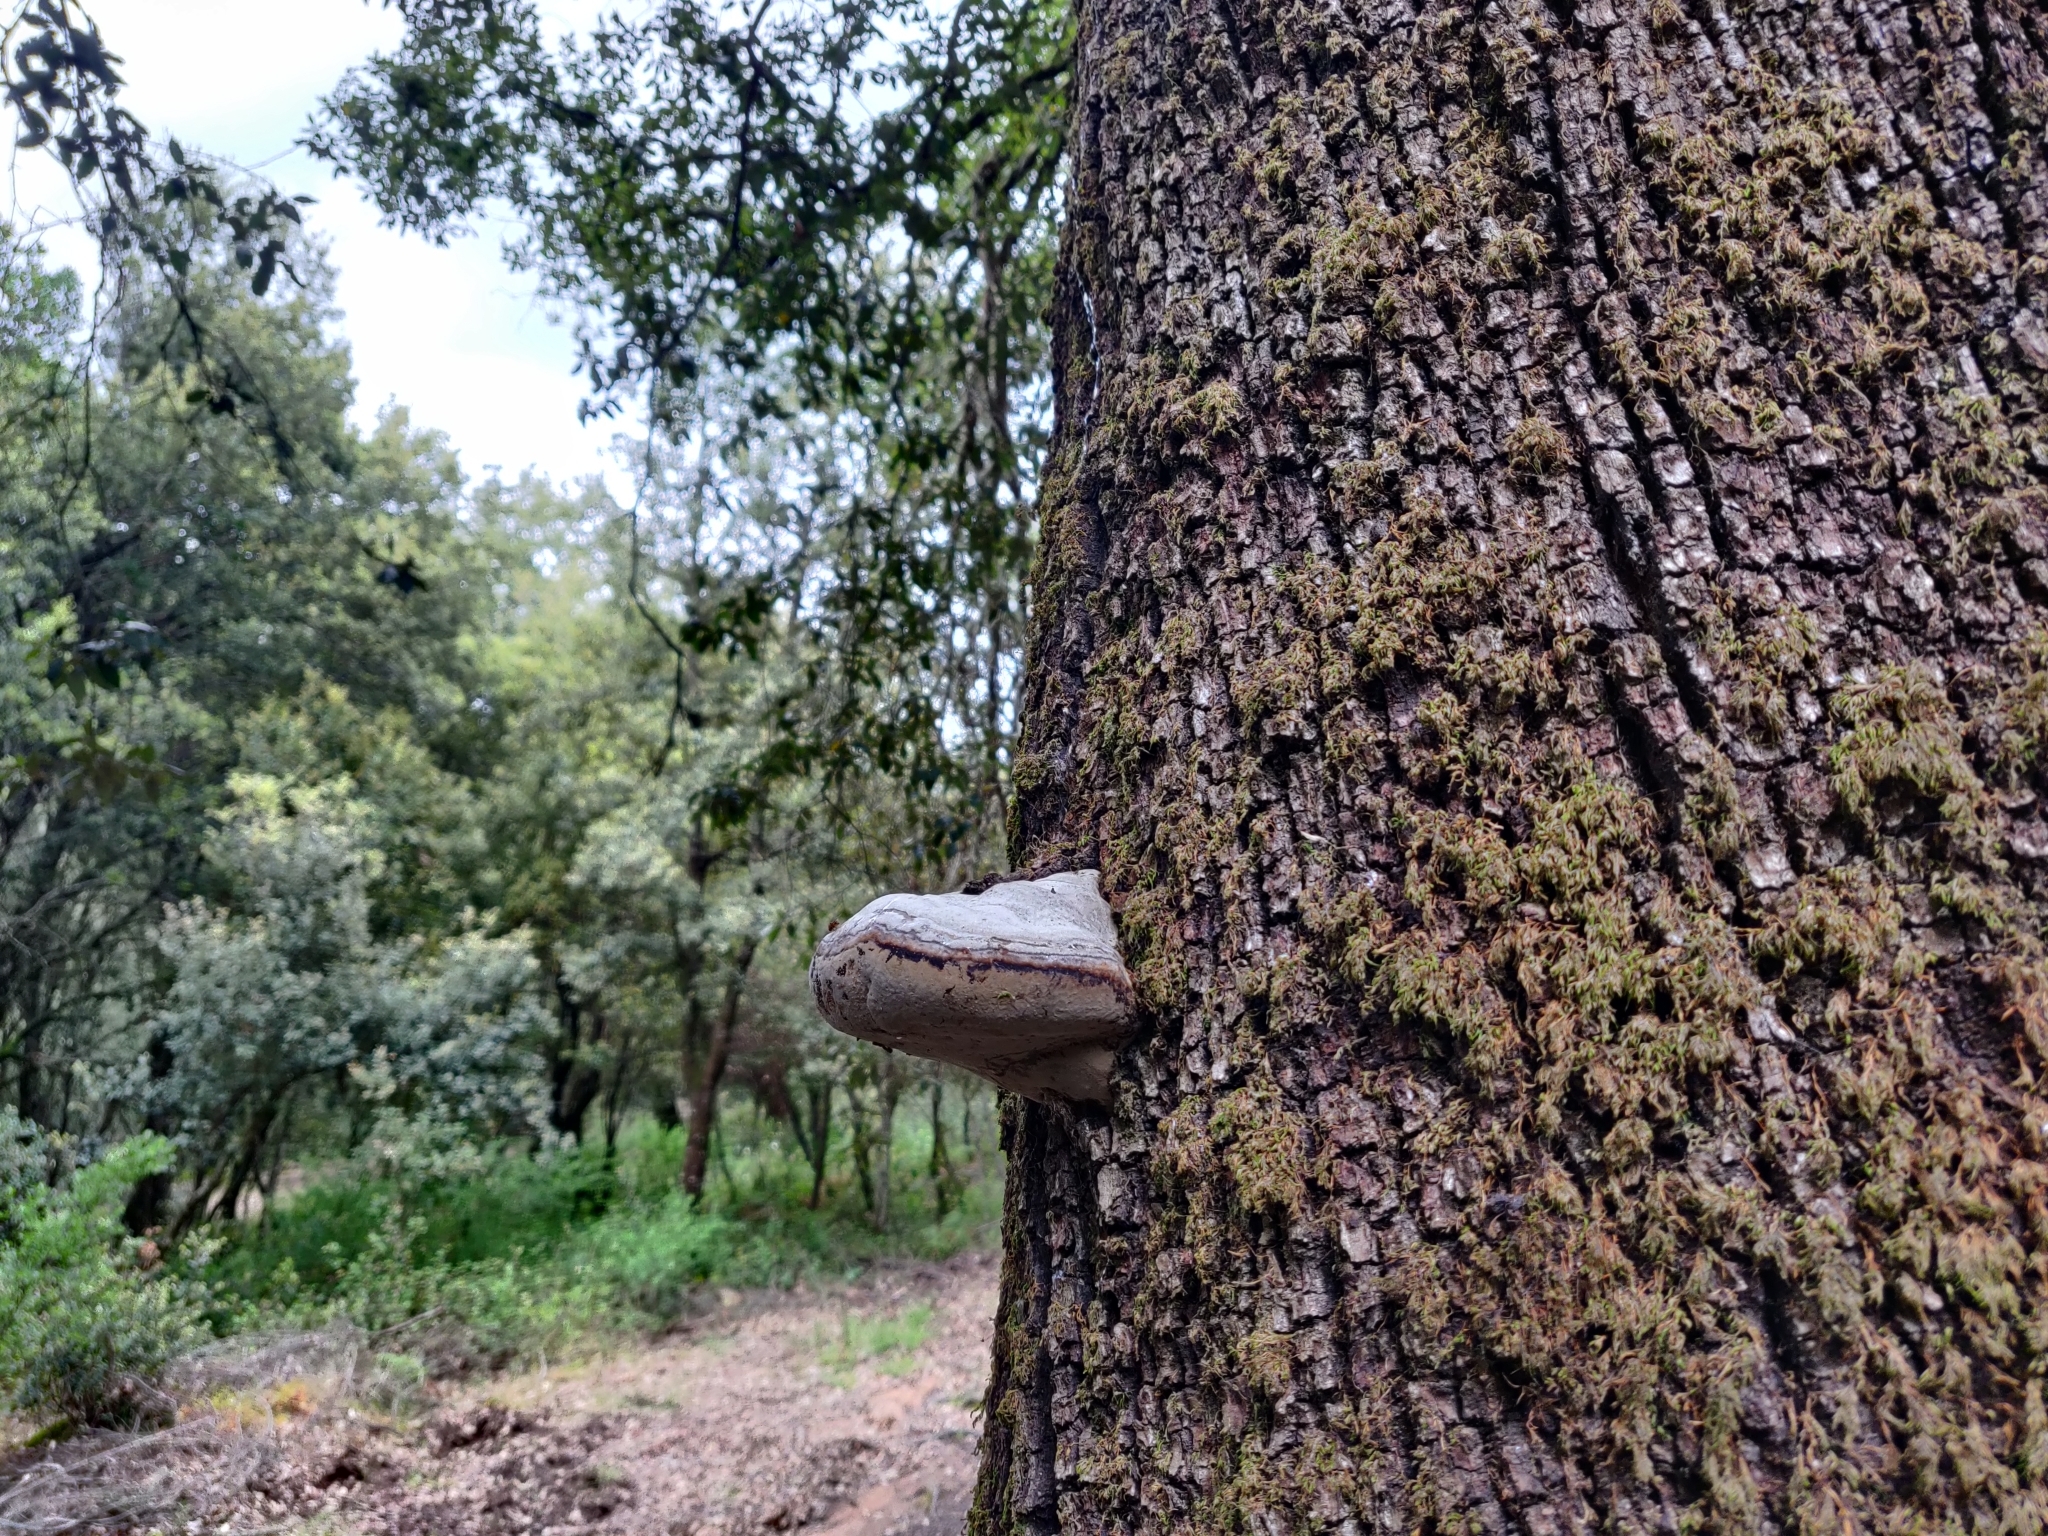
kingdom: Fungi
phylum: Basidiomycota
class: Agaricomycetes
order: Polyporales
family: Polyporaceae
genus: Fomes
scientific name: Fomes fomentarius
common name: Hoof fungus
